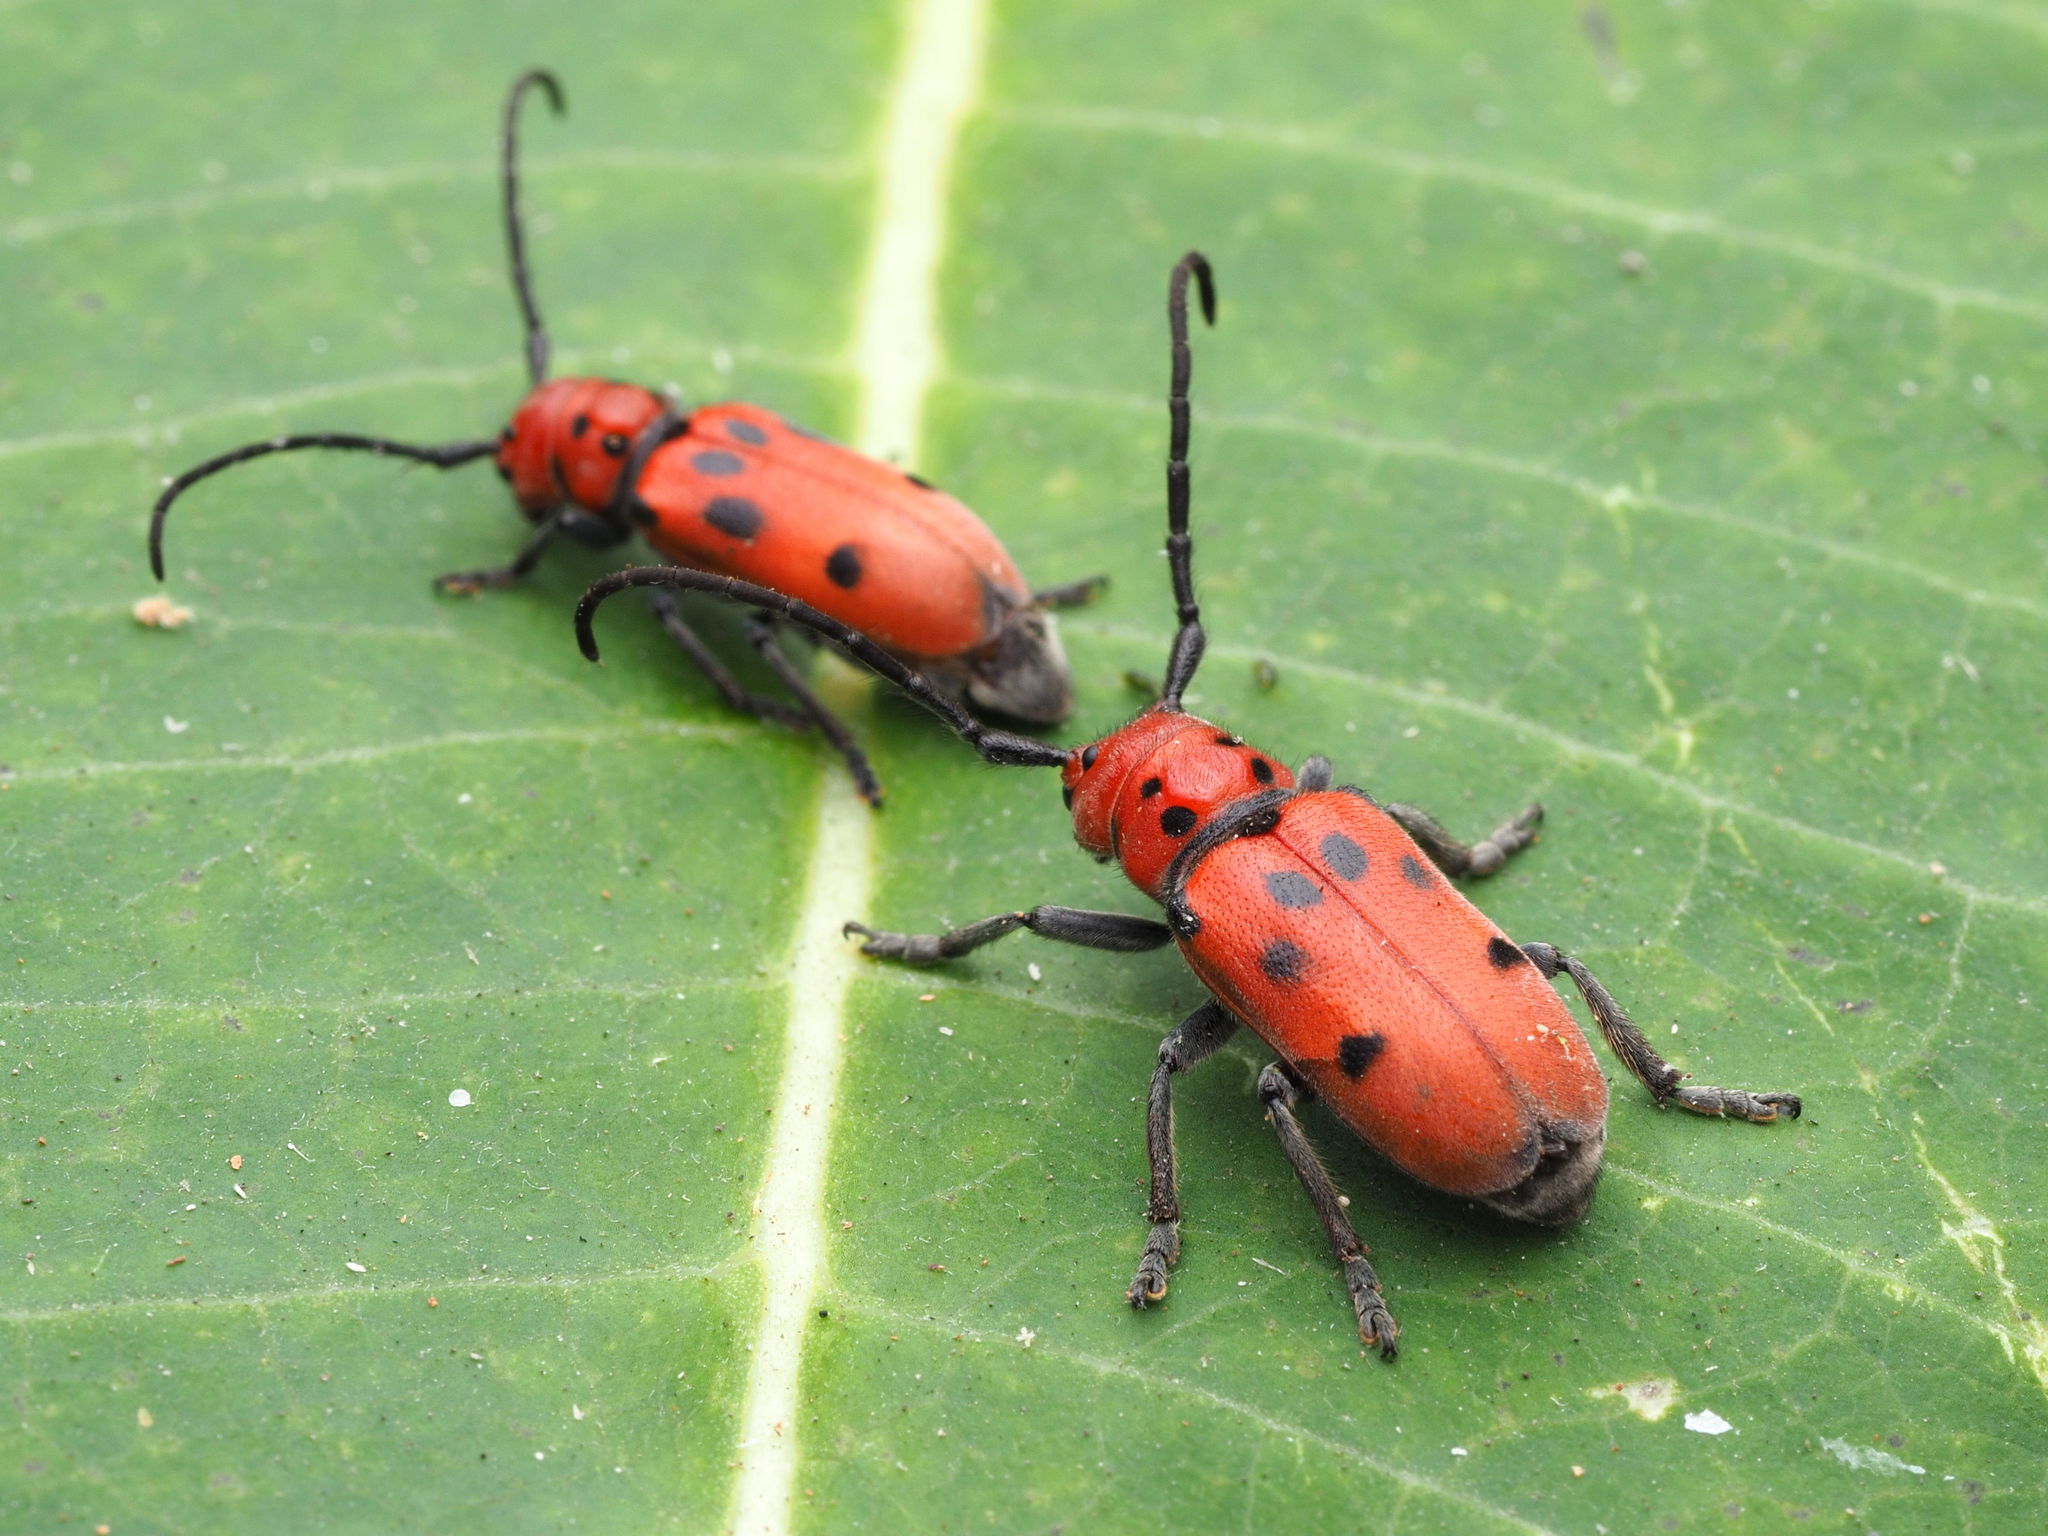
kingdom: Animalia
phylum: Arthropoda
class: Insecta
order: Coleoptera
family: Cerambycidae
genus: Tetraopes
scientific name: Tetraopes tetrophthalmus
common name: Red milkweed beetle
